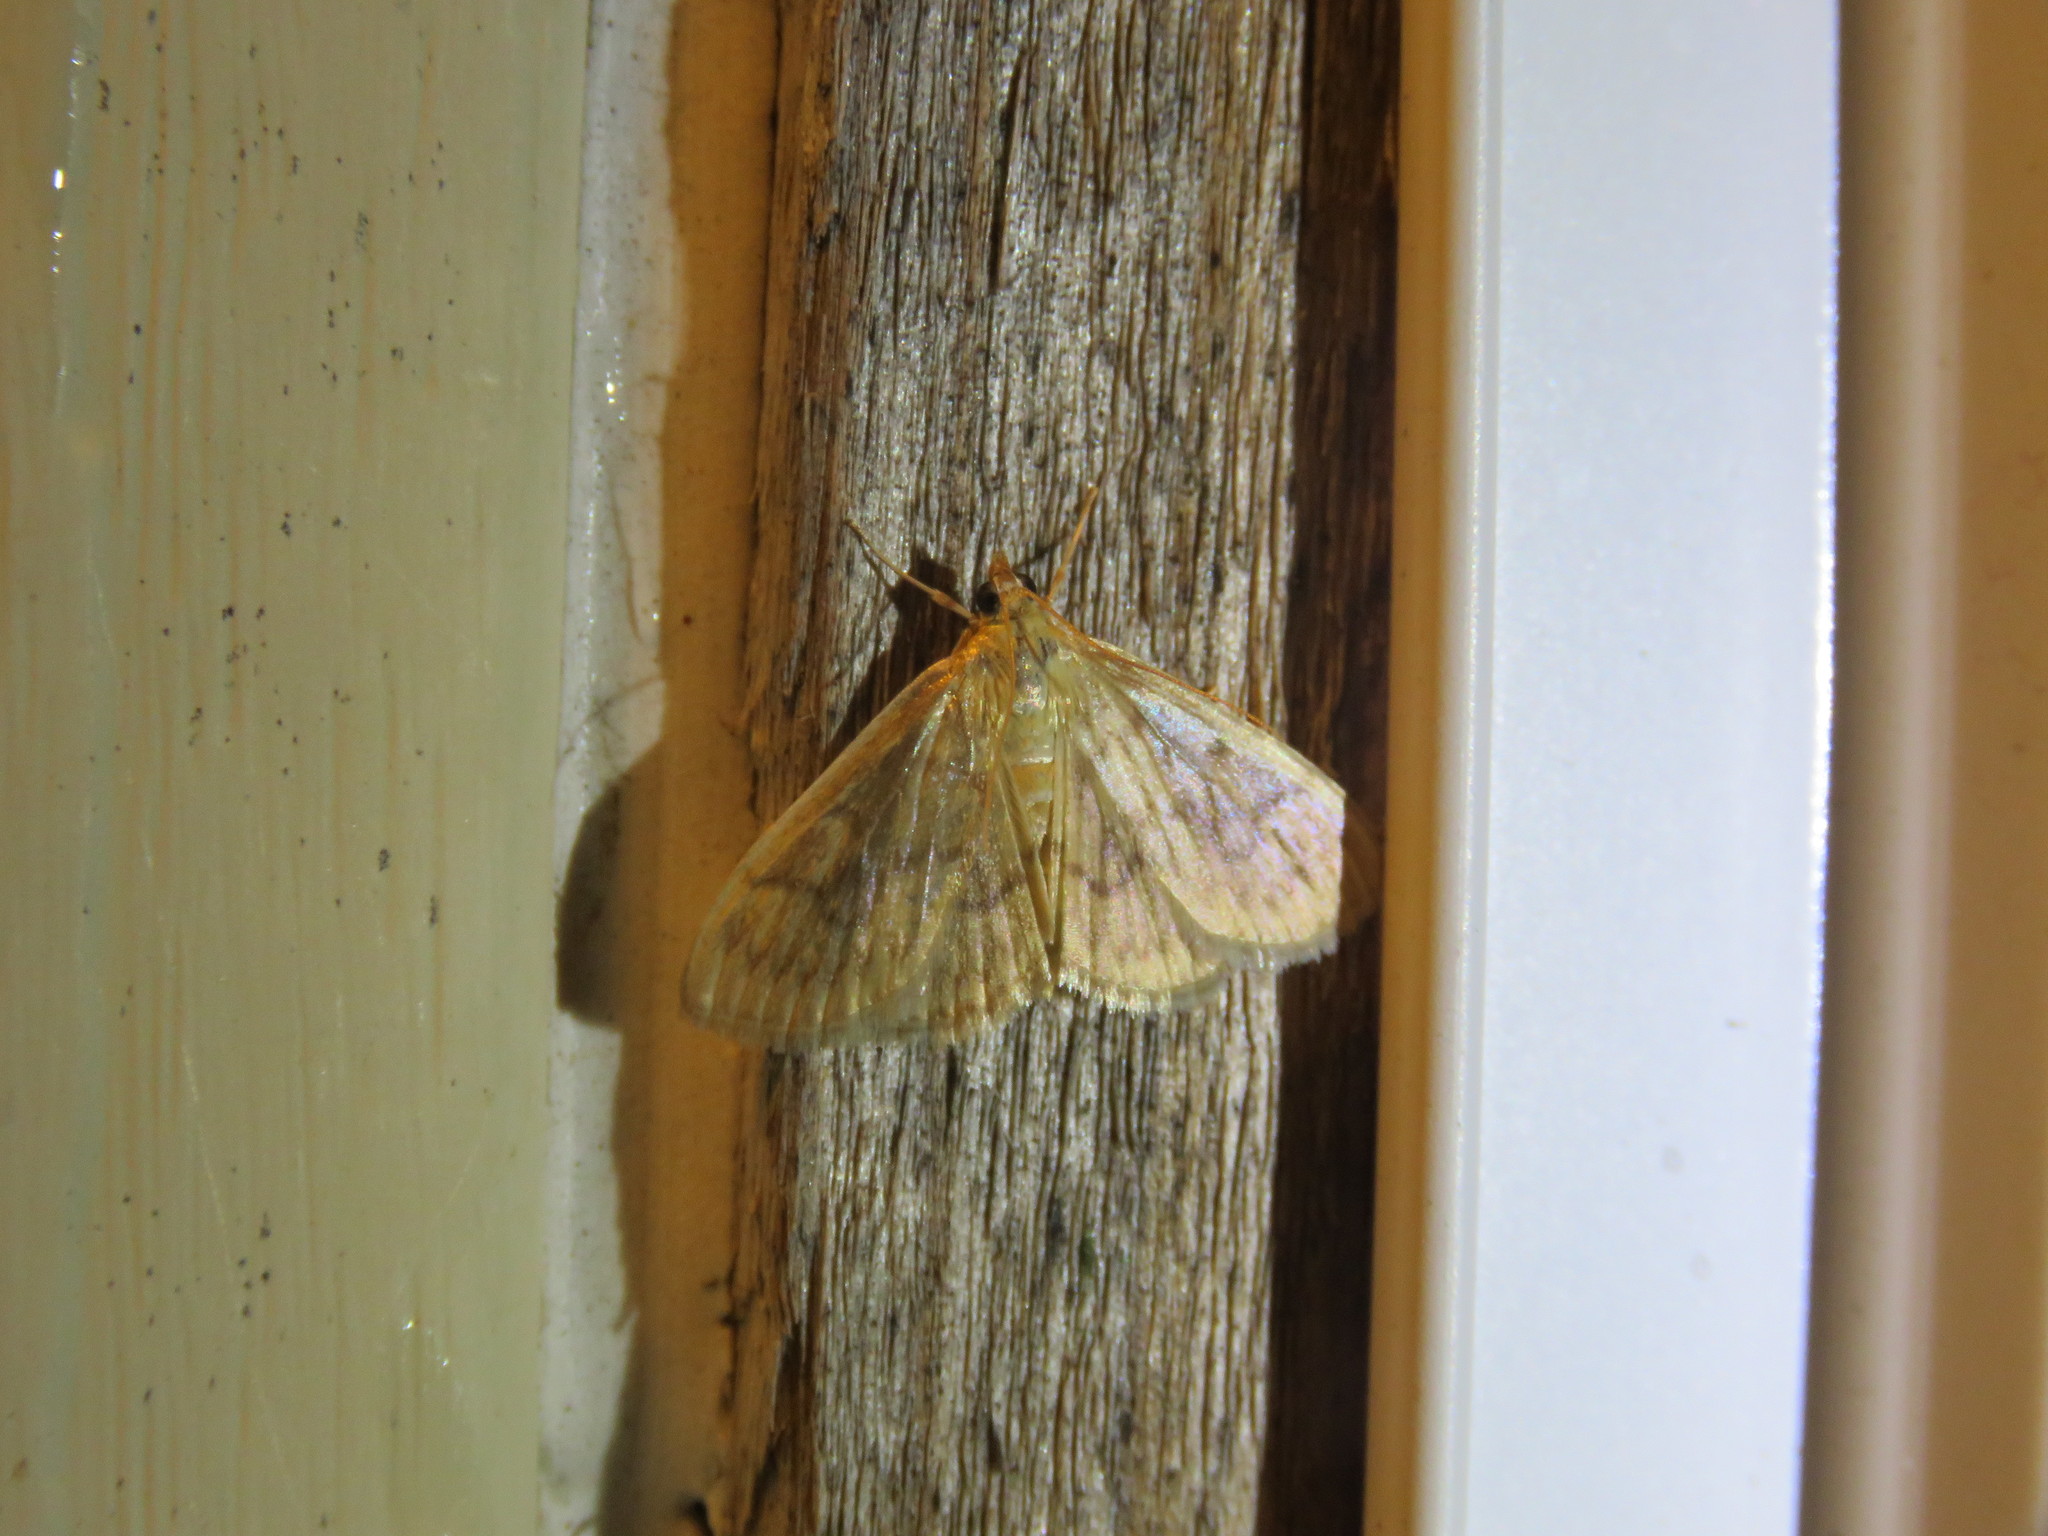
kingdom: Animalia
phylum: Arthropoda
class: Insecta
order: Lepidoptera
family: Crambidae
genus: Crocidophora
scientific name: Crocidophora serratissimalis
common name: Saw-toothed crocidophora moth
